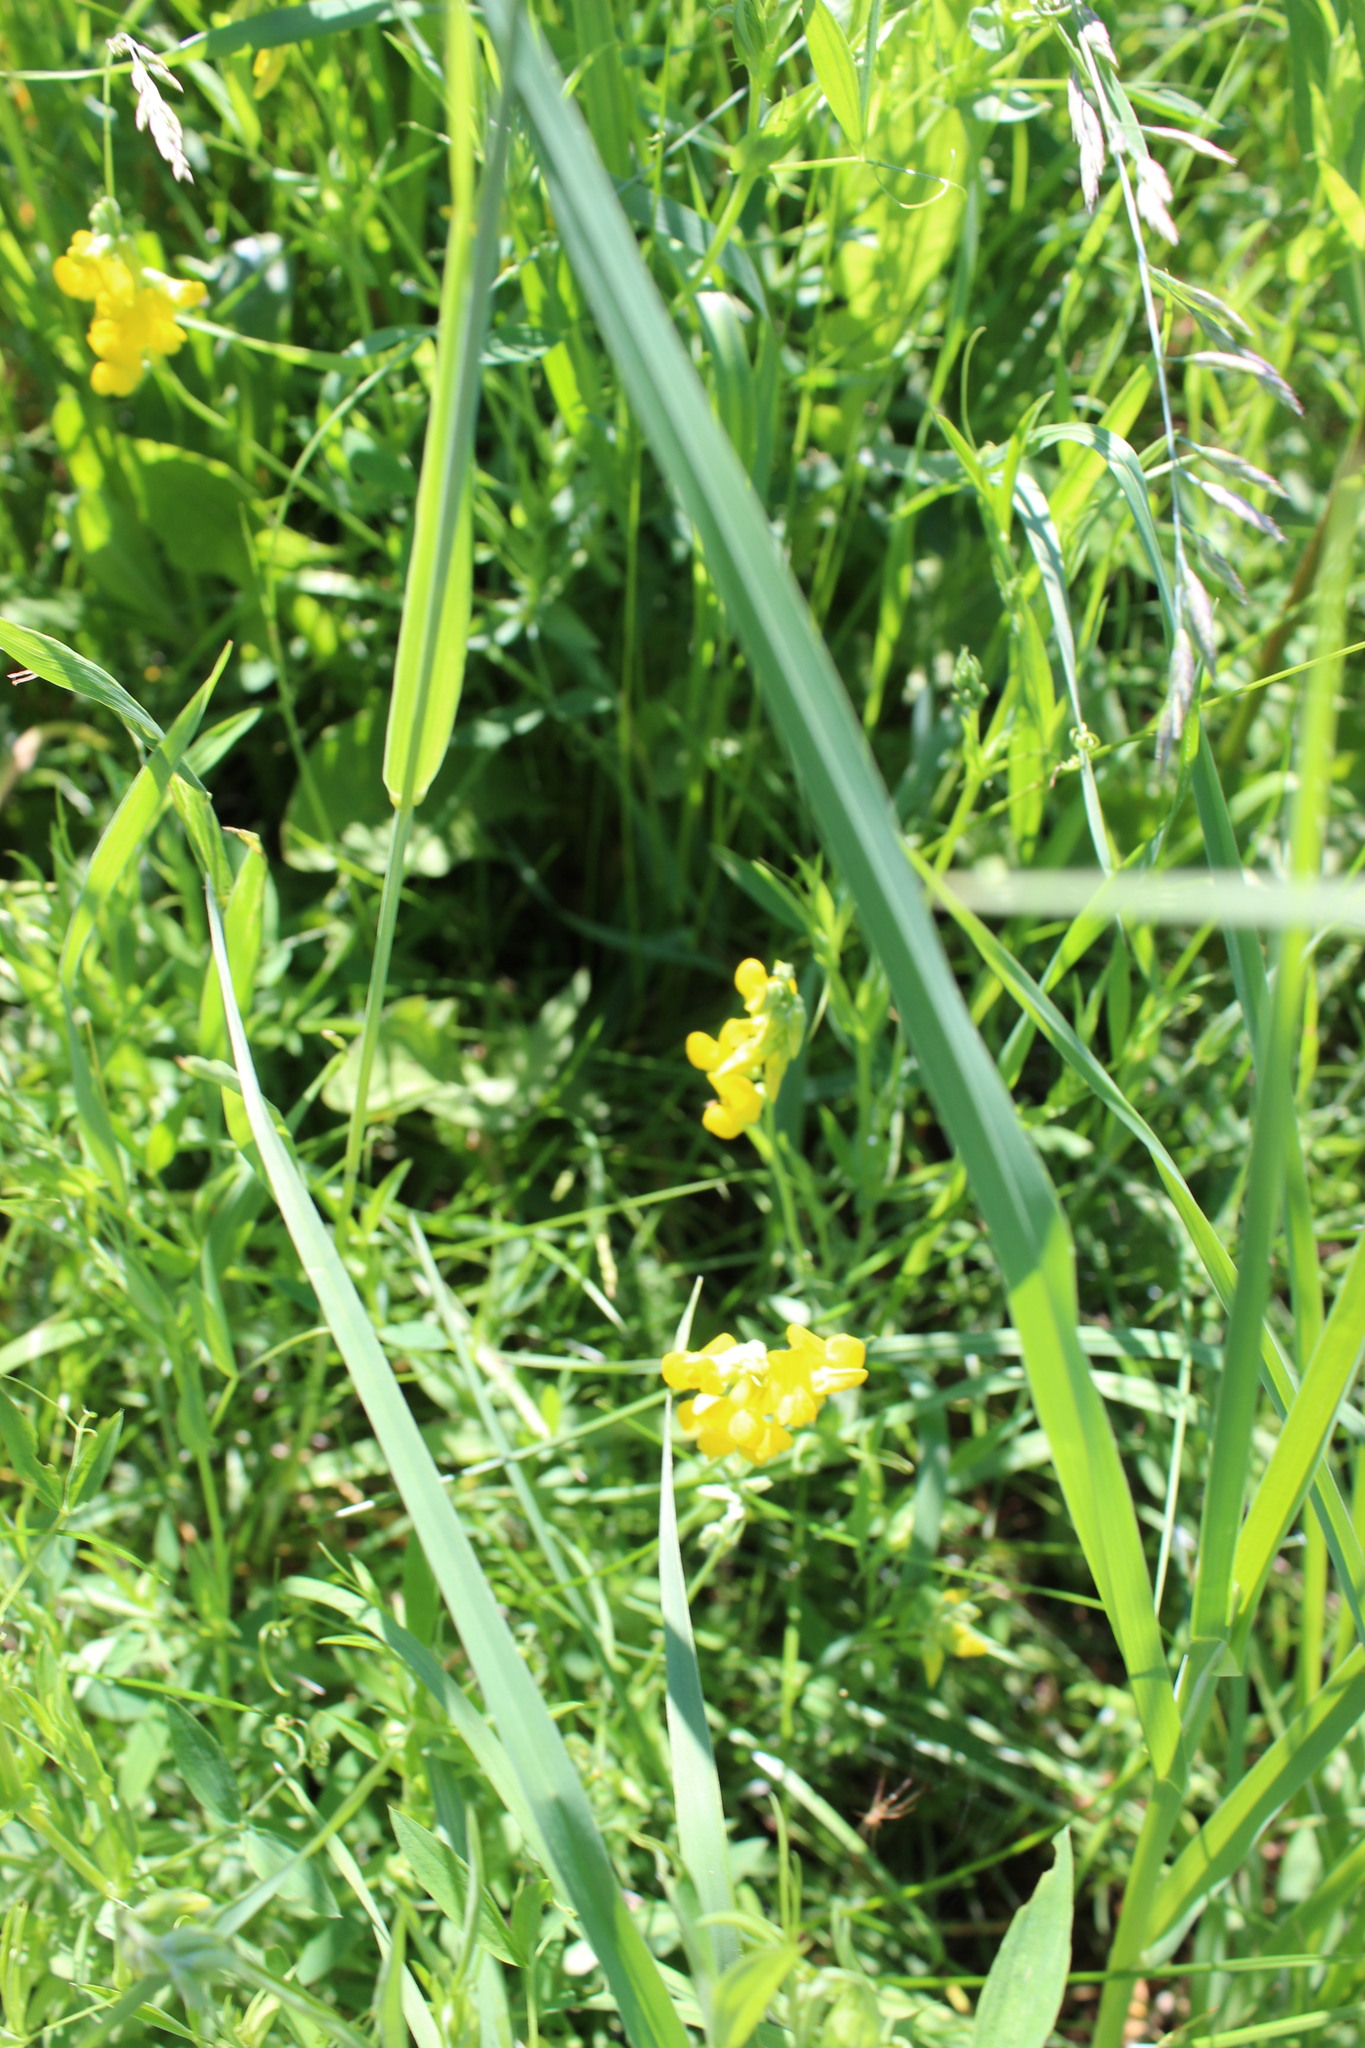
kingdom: Plantae
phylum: Tracheophyta
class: Magnoliopsida
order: Fabales
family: Fabaceae
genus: Lathyrus
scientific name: Lathyrus pratensis
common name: Meadow vetchling
